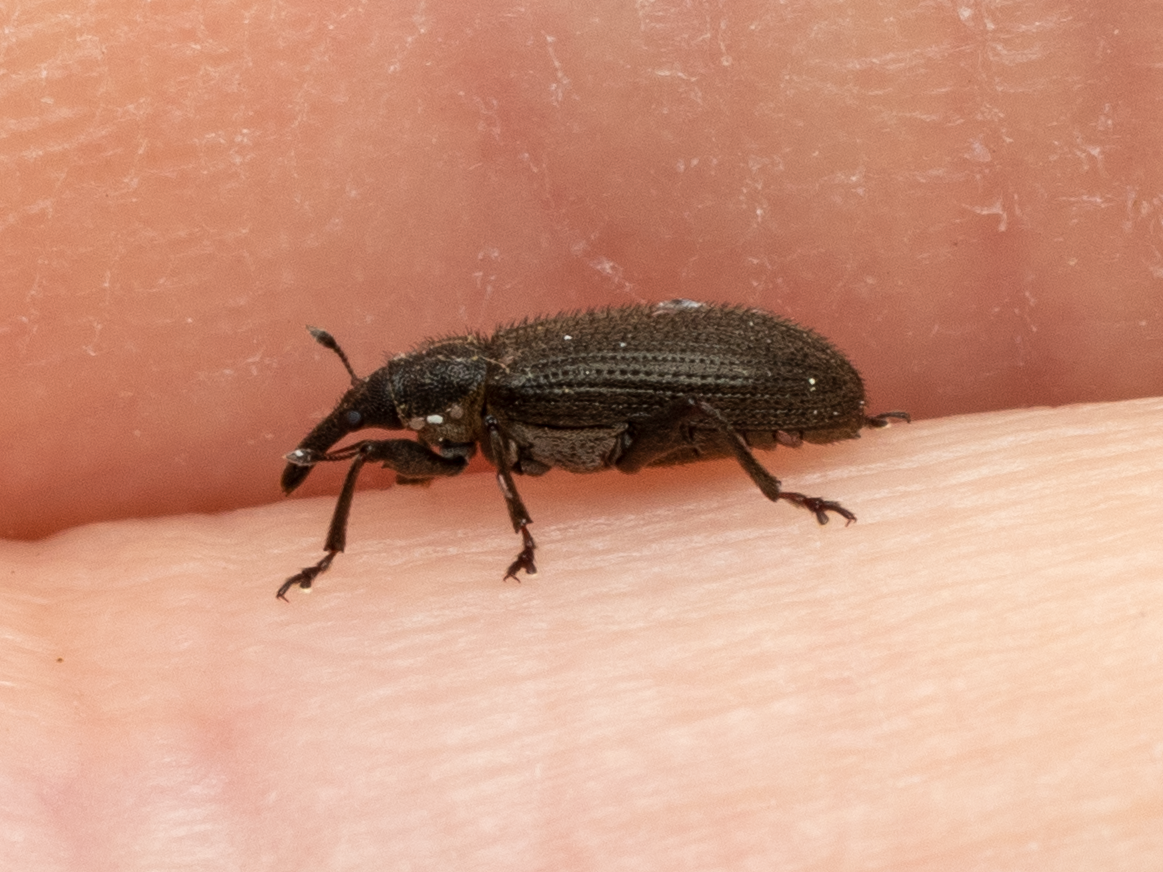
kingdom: Animalia
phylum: Arthropoda
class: Insecta
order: Coleoptera
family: Curculionidae
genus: Eugnomus
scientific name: Eugnomus durvillei
